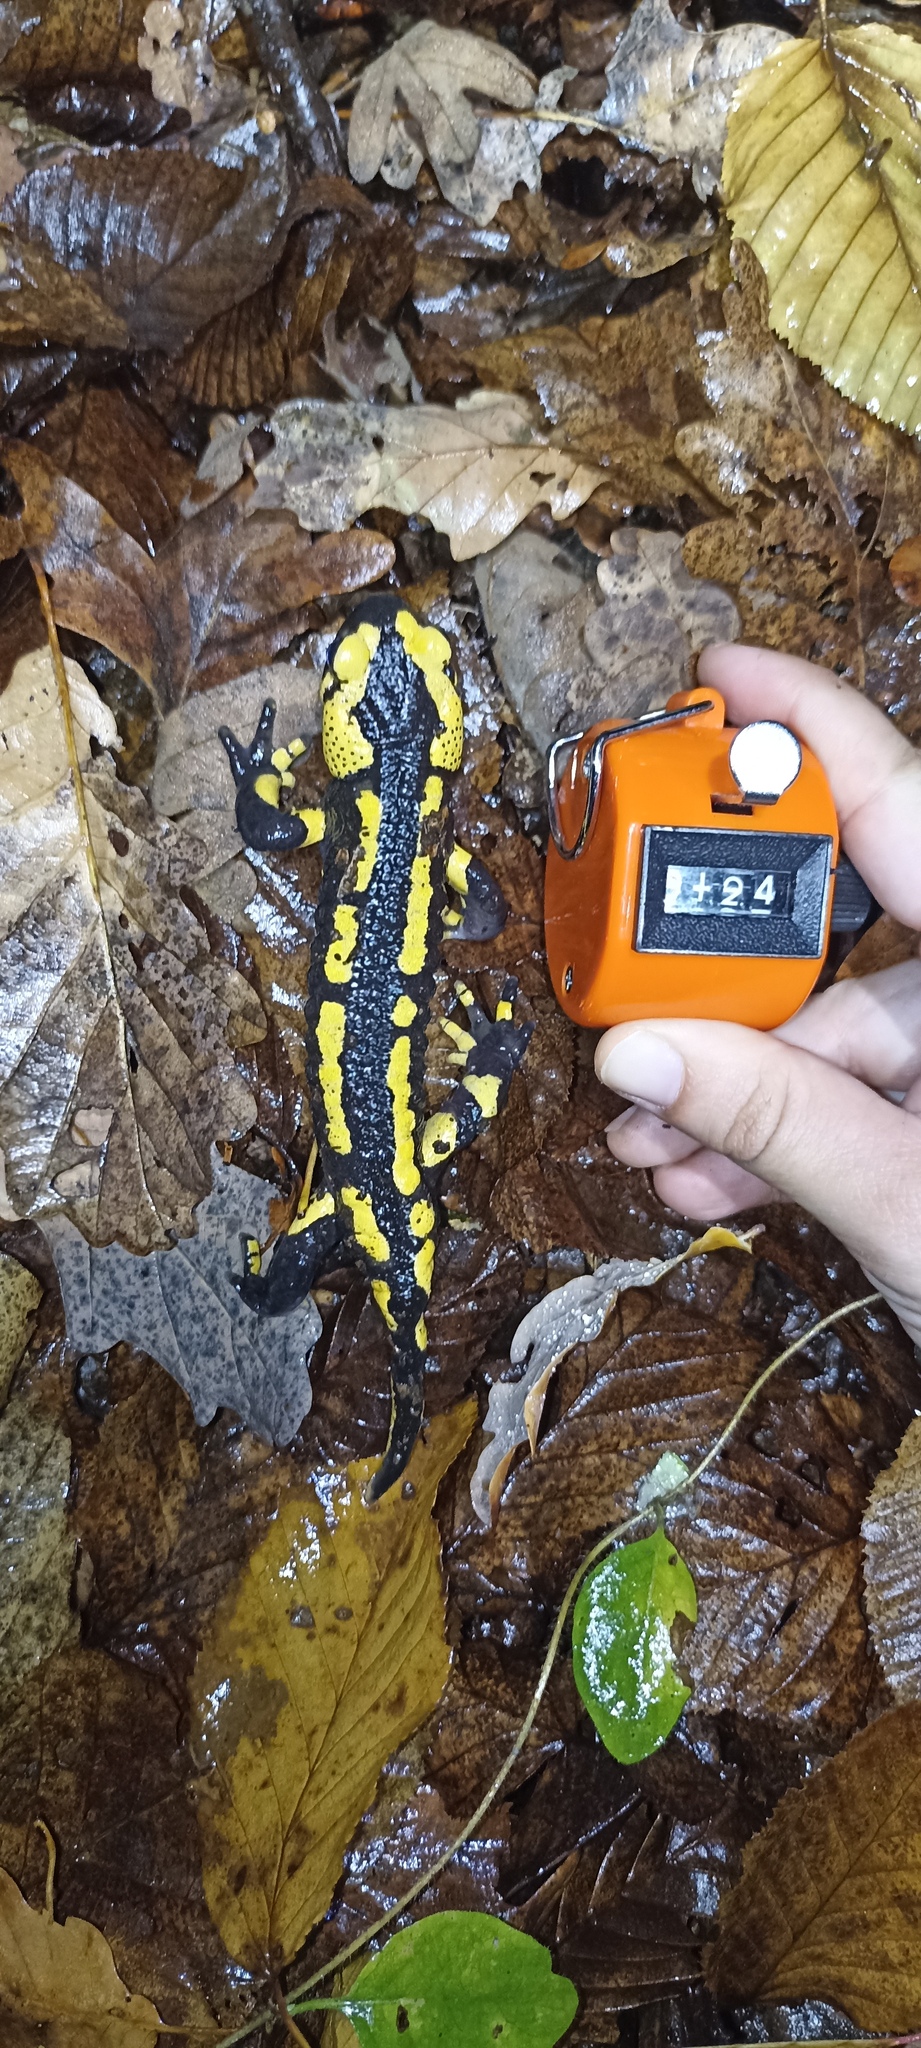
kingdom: Animalia
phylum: Chordata
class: Amphibia
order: Caudata
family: Salamandridae
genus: Salamandra
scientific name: Salamandra salamandra
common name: Fire salamander
